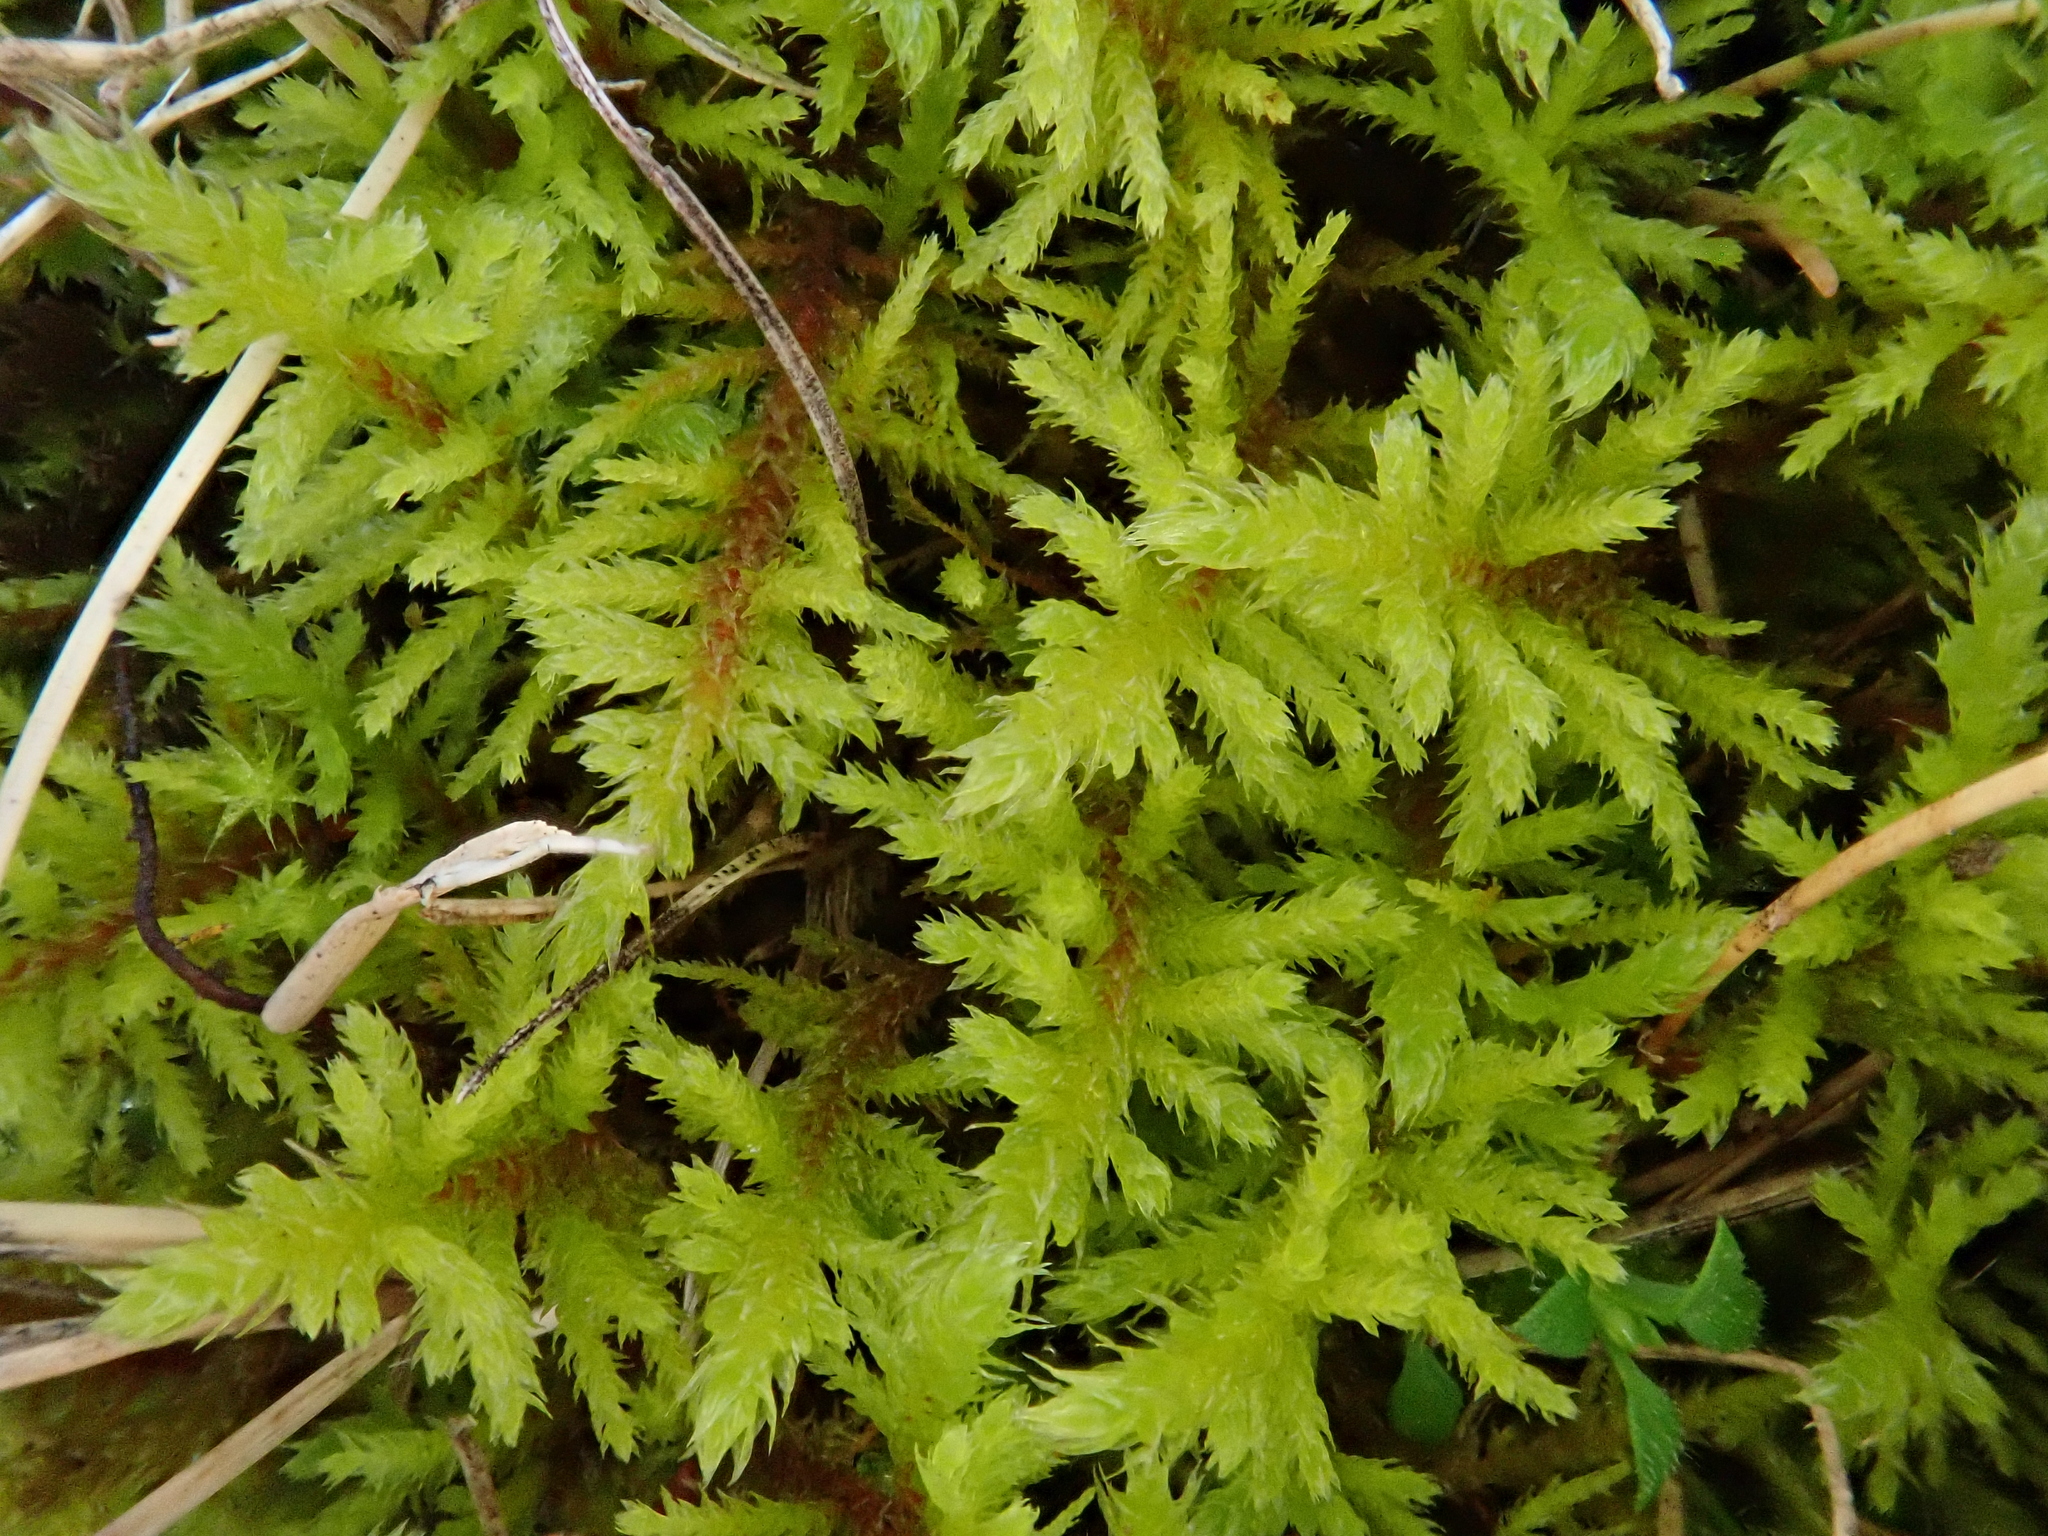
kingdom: Plantae
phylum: Bryophyta
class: Bryopsida
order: Hypnales
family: Thuidiaceae
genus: Abietinella
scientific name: Abietinella abietina
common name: Wiry fern moss
